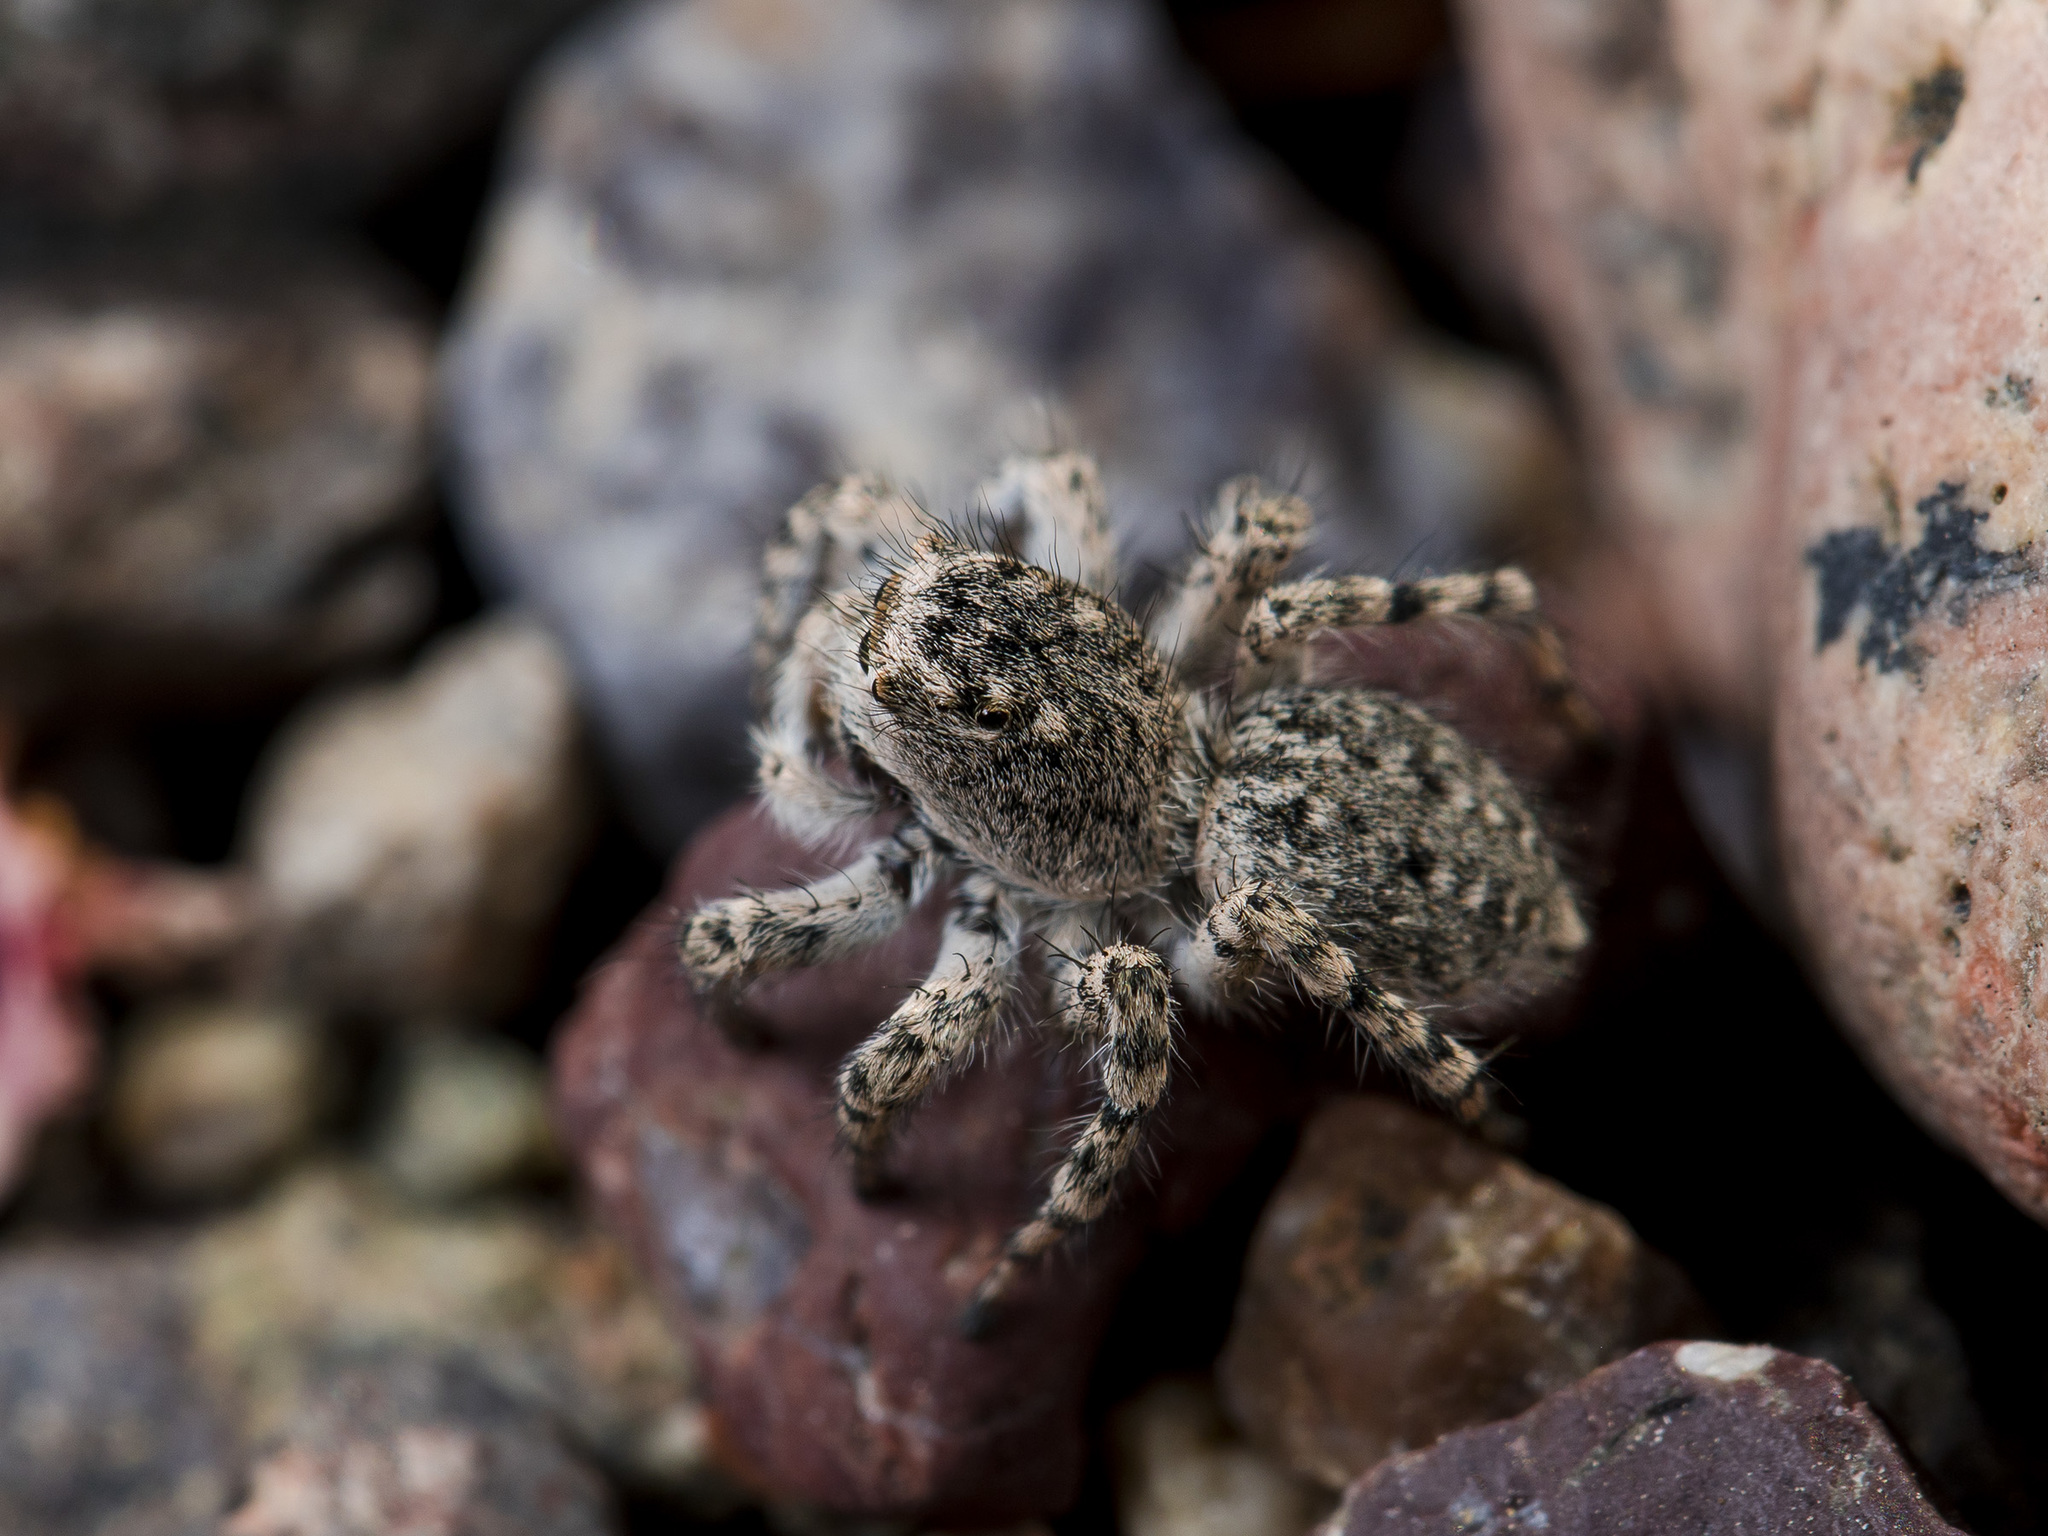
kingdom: Animalia
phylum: Arthropoda
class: Arachnida
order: Araneae
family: Salticidae
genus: Aelurillus
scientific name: Aelurillus dubatolovi
